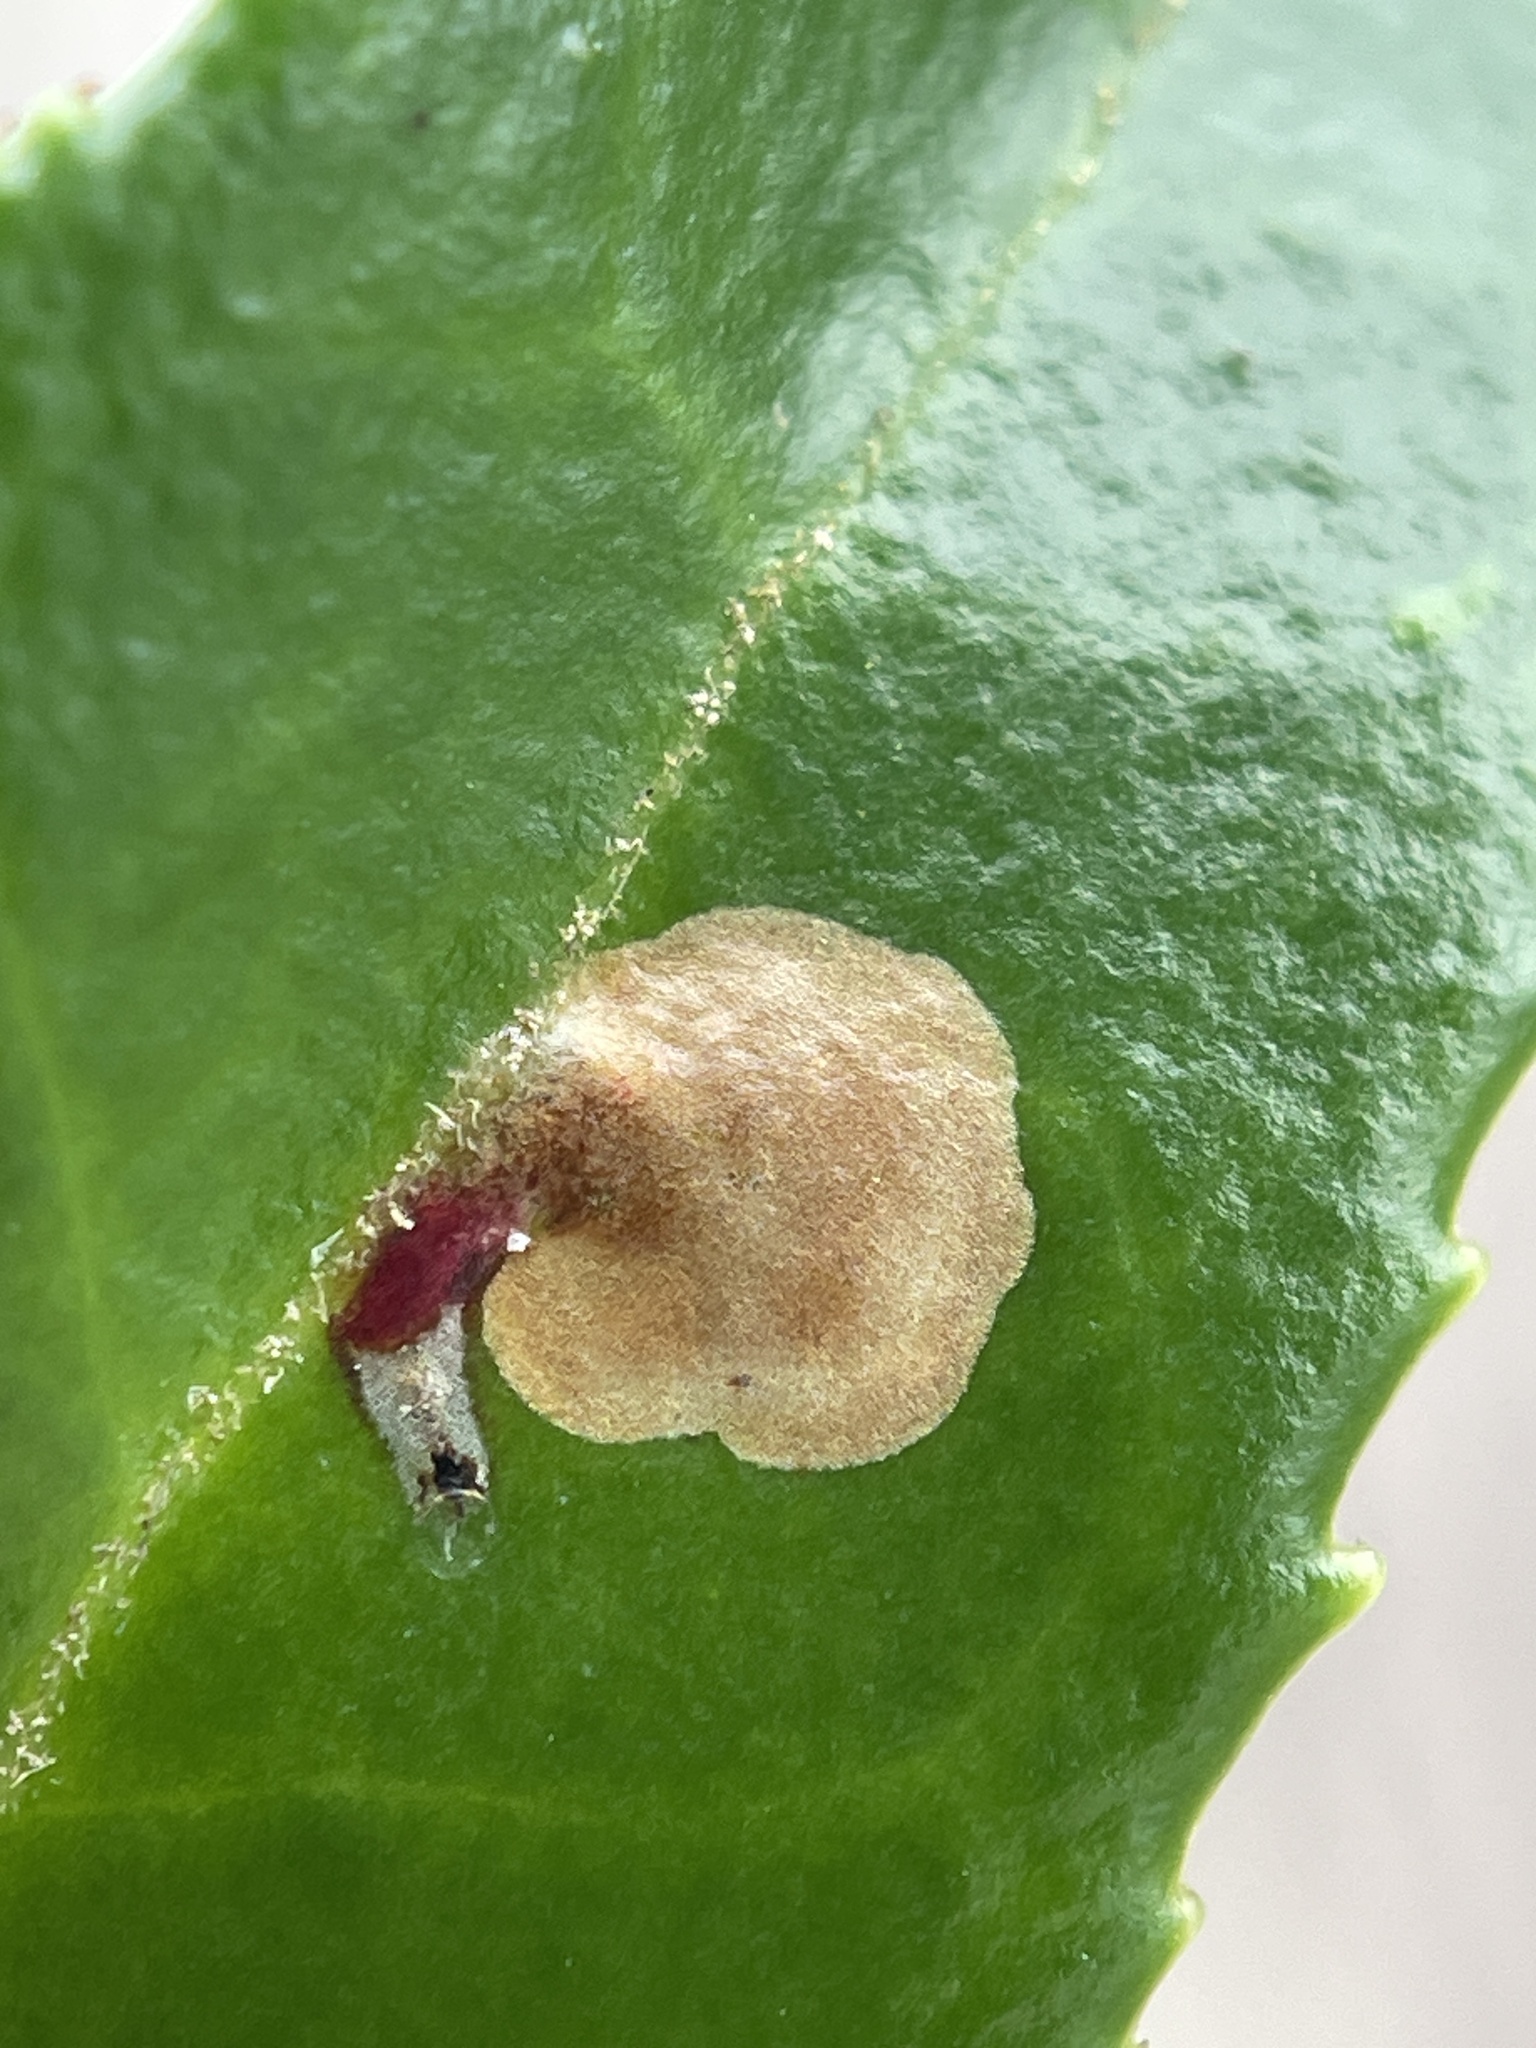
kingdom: Animalia
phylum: Arthropoda
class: Insecta
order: Lepidoptera
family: Gracillariidae
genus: Cameraria
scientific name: Cameraria nemoris
